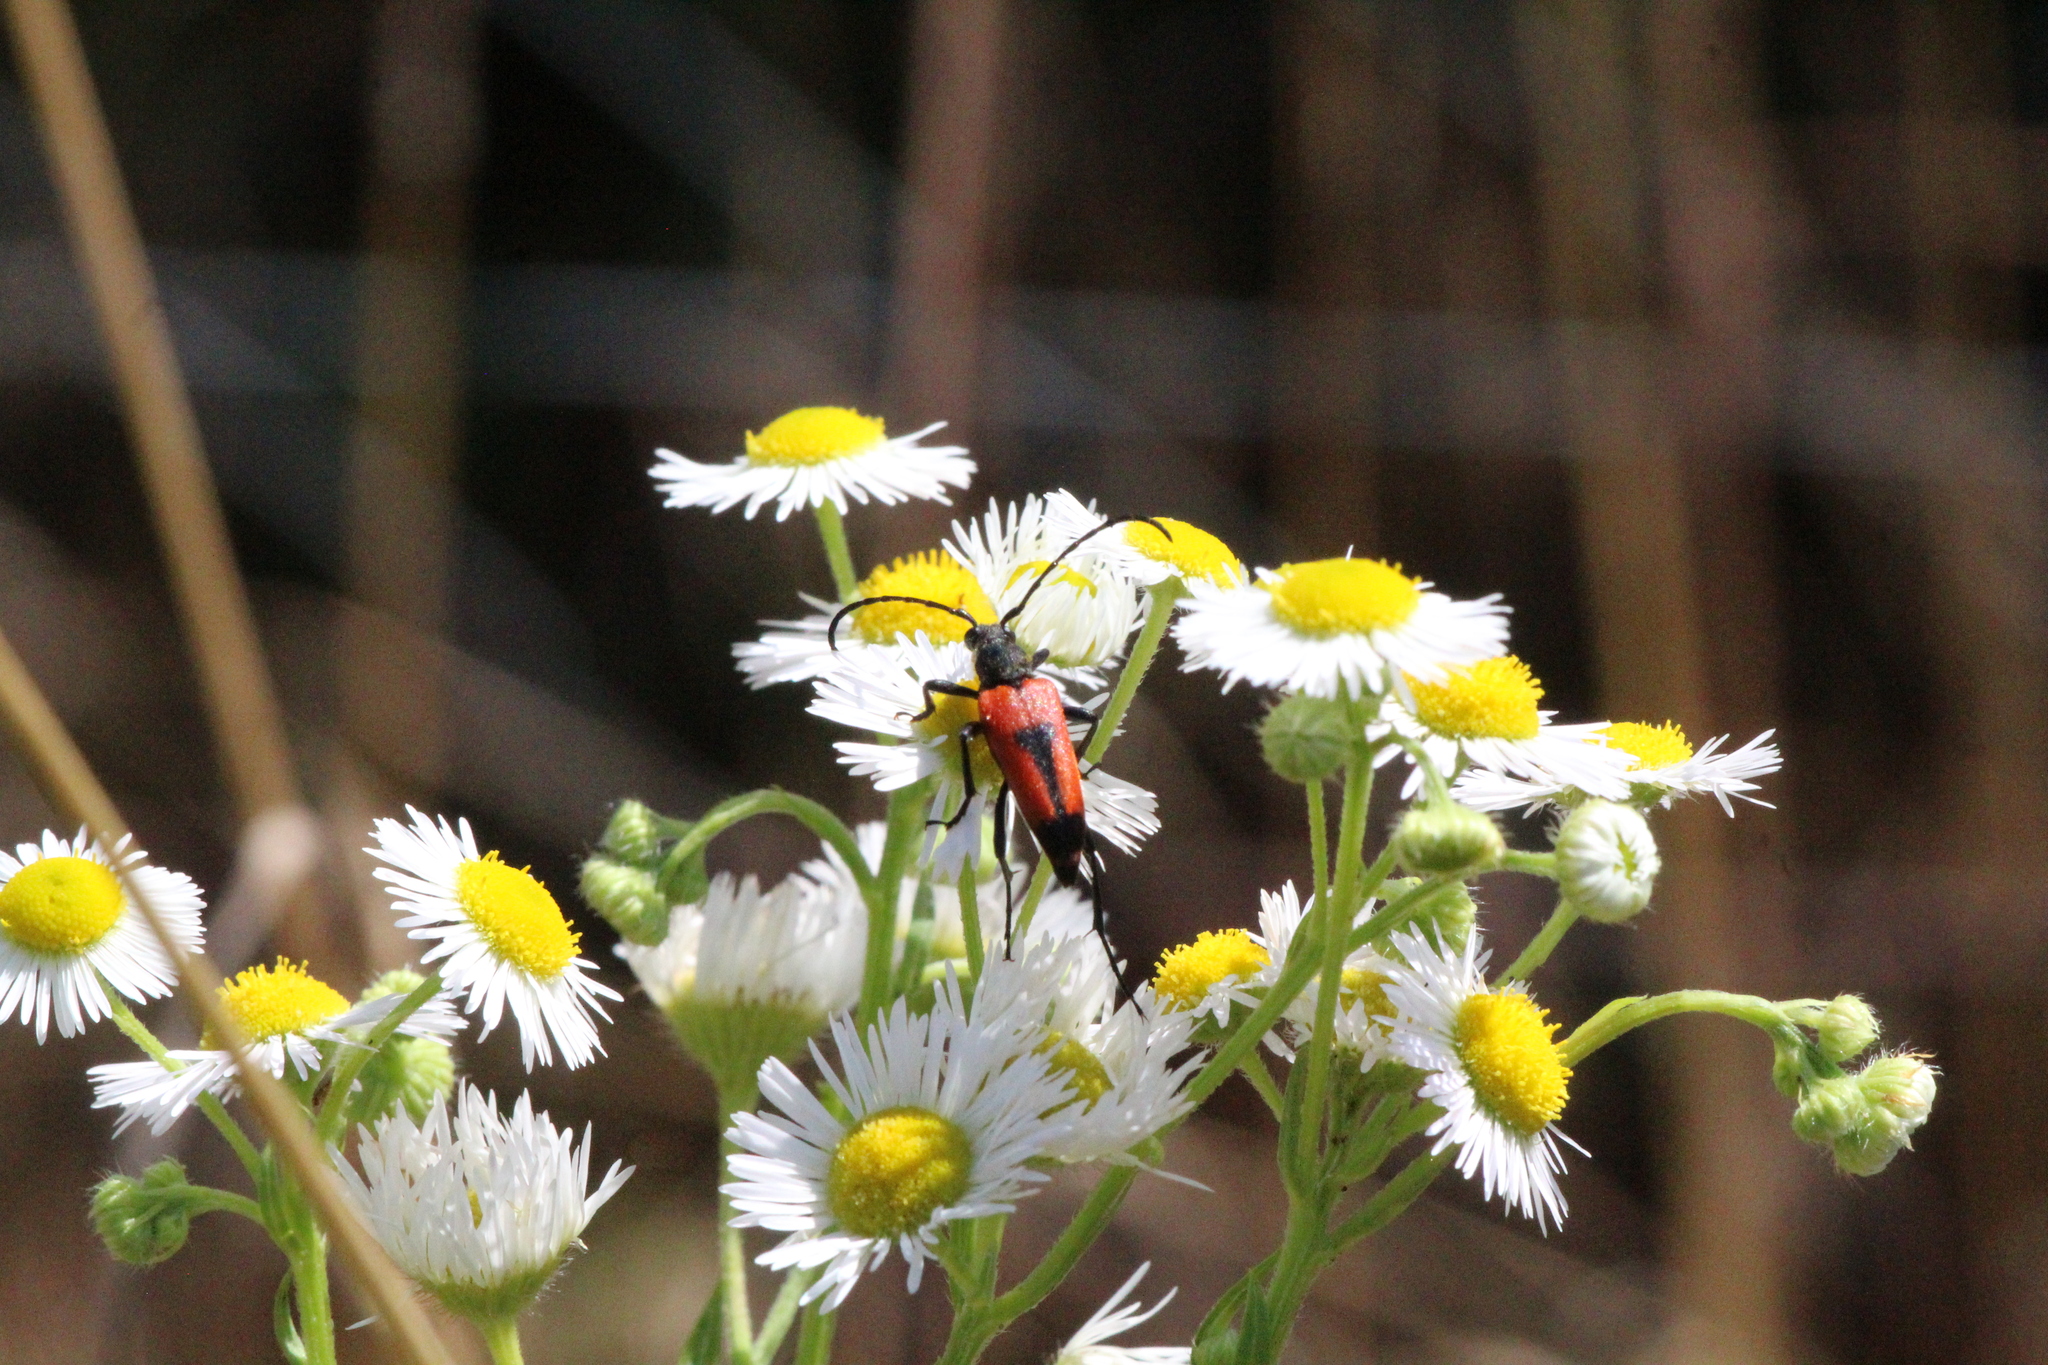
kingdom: Animalia
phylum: Arthropoda
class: Insecta
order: Coleoptera
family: Cerambycidae
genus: Stictoleptura
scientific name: Stictoleptura cordigera
